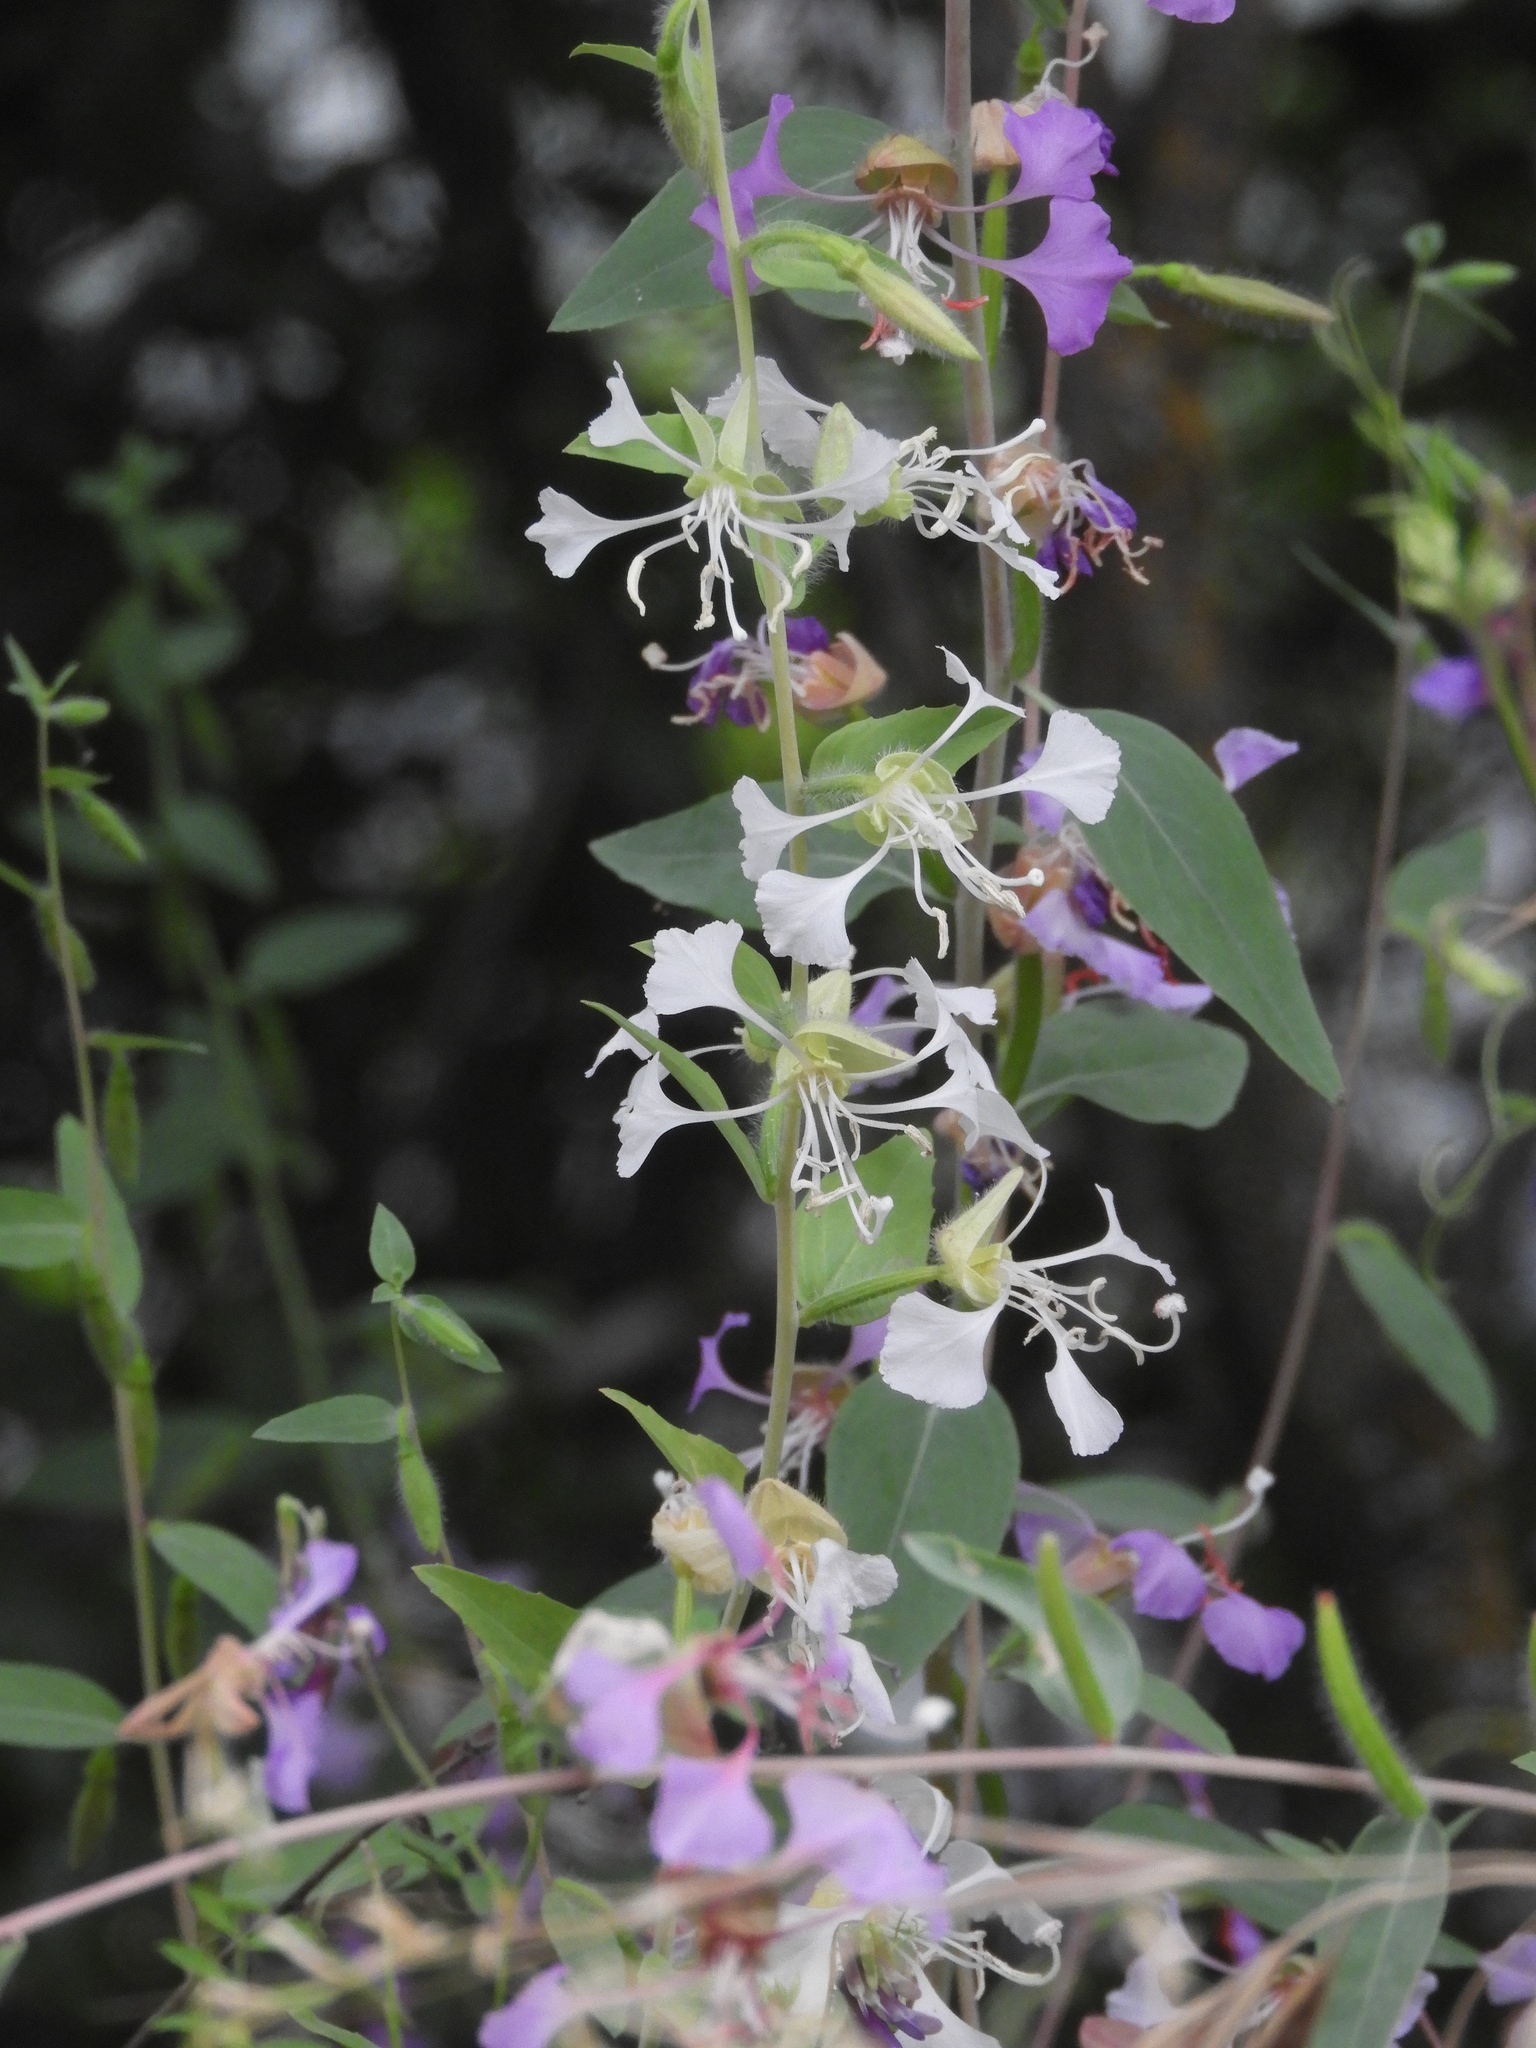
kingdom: Plantae
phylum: Tracheophyta
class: Magnoliopsida
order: Myrtales
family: Onagraceae
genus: Clarkia
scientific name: Clarkia unguiculata
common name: Clarkia
